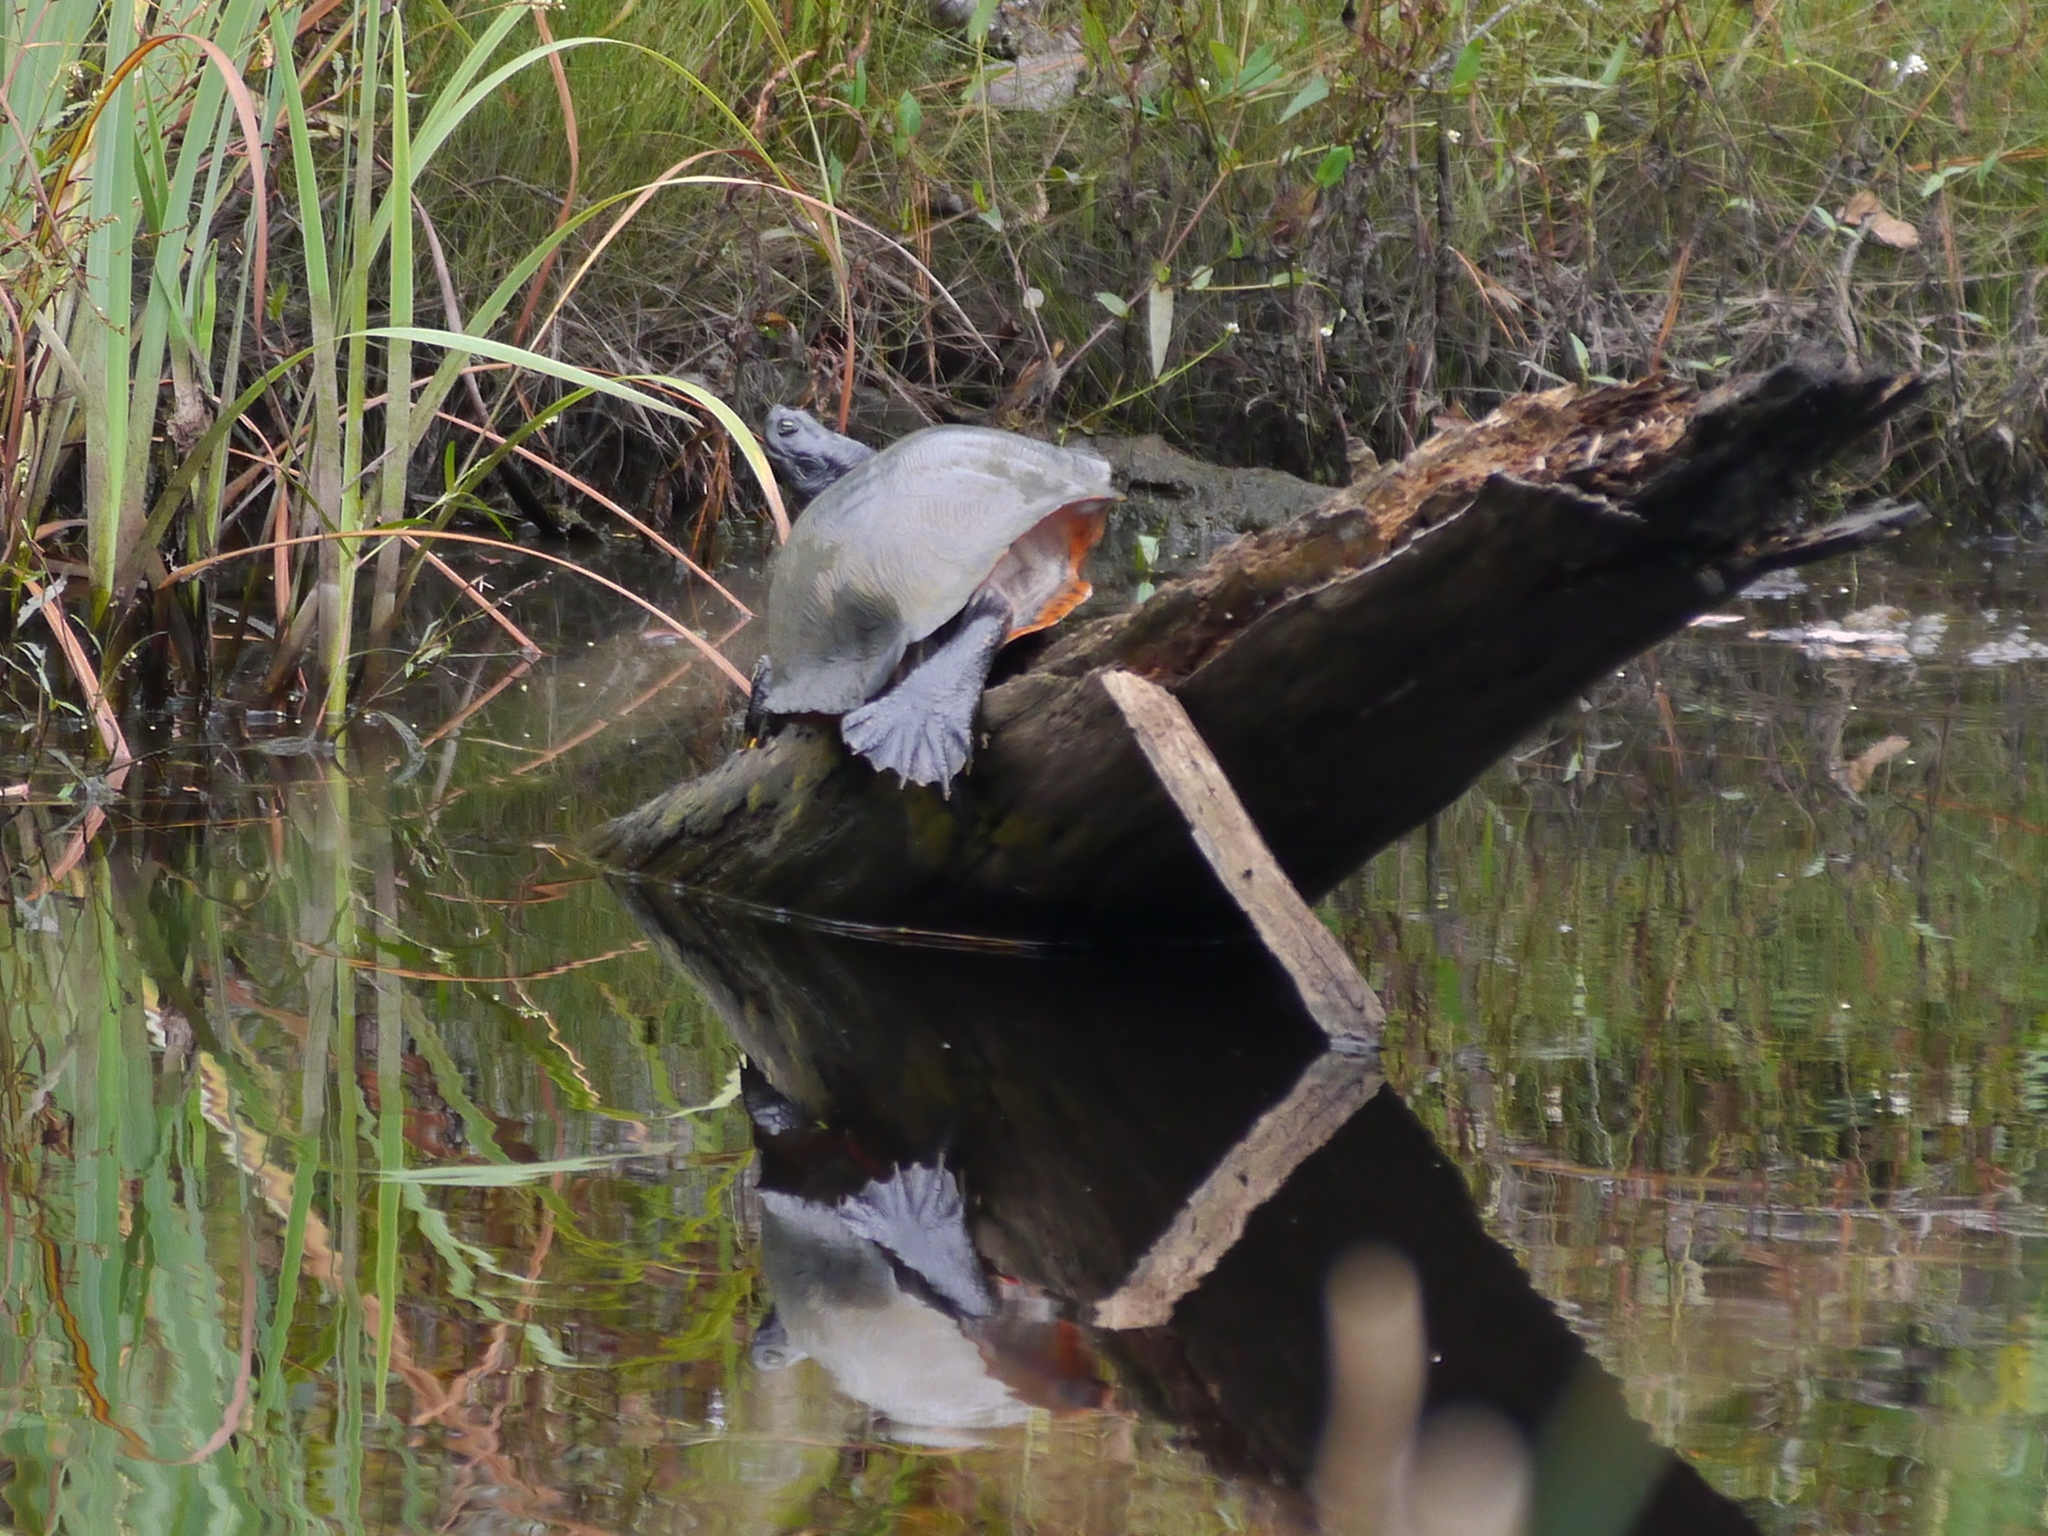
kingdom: Animalia
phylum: Chordata
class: Testudines
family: Emydidae
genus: Pseudemys
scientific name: Pseudemys rubriventris
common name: American red-bellied turtle
